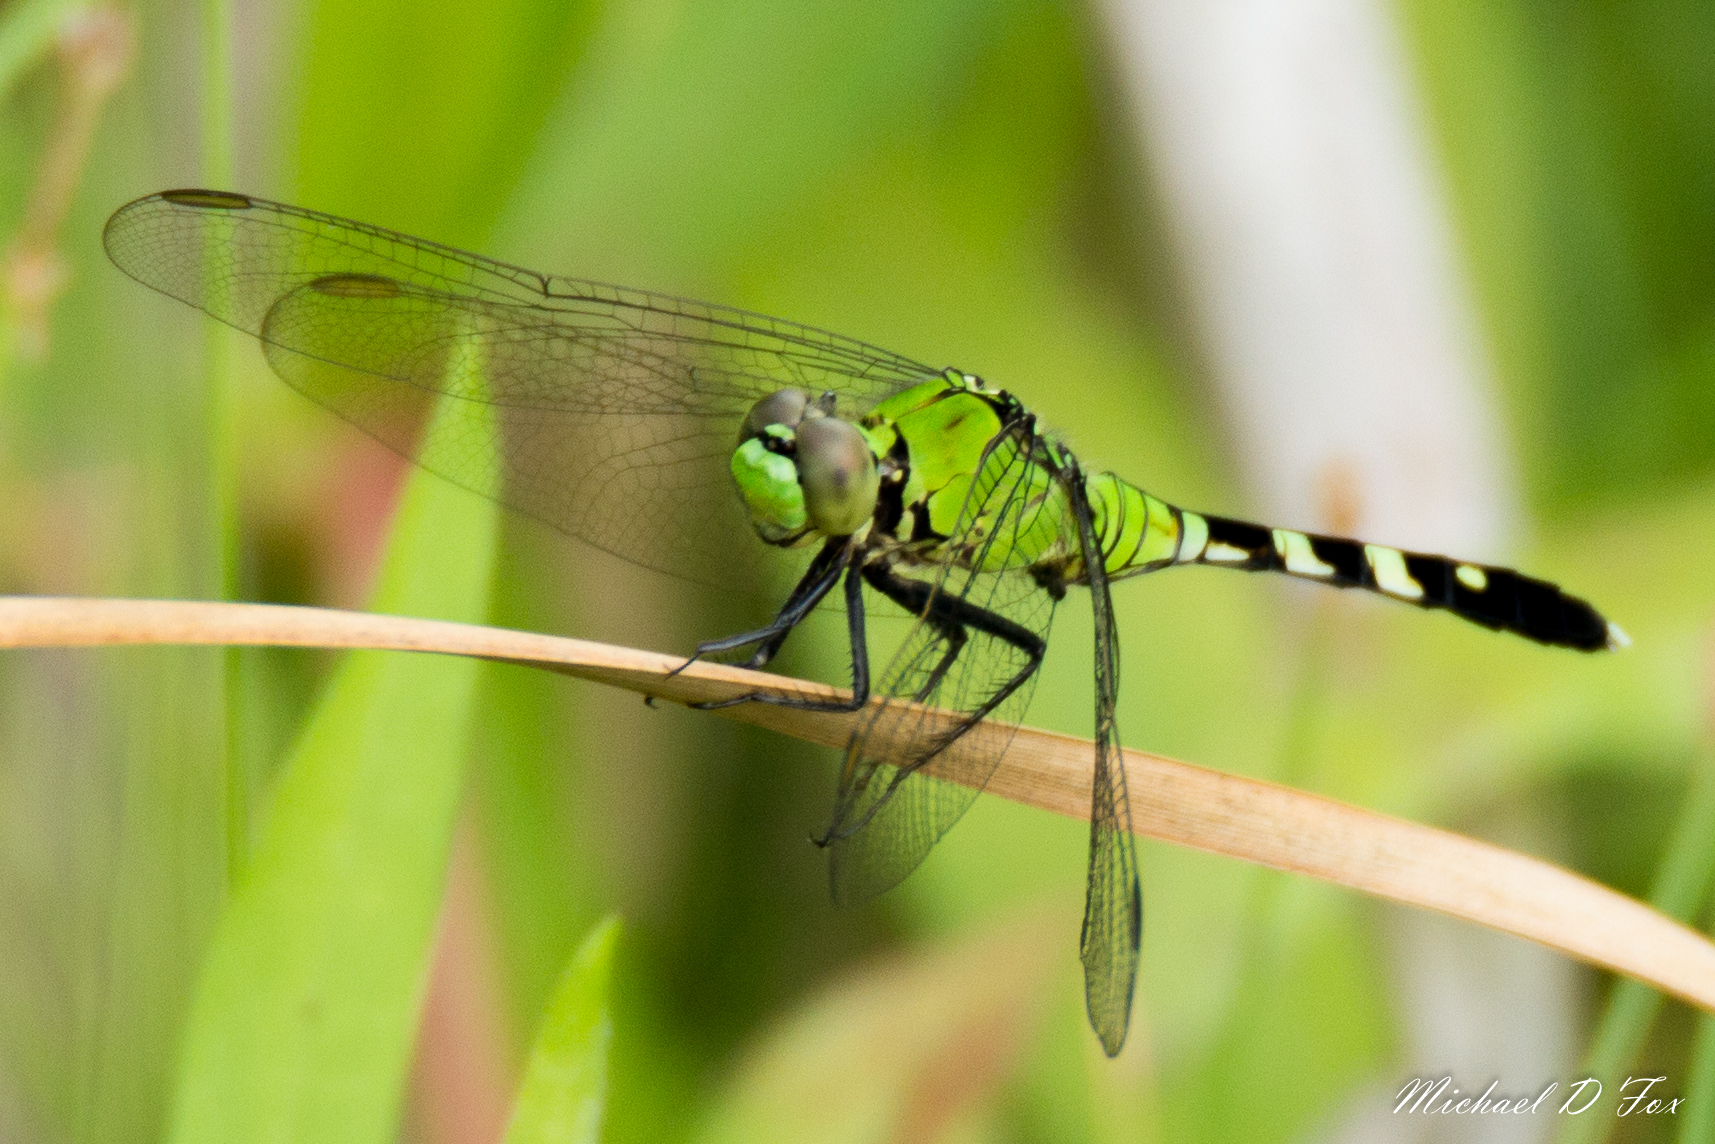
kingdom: Animalia
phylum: Arthropoda
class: Insecta
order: Odonata
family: Libellulidae
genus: Erythemis
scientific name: Erythemis simplicicollis
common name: Eastern pondhawk
